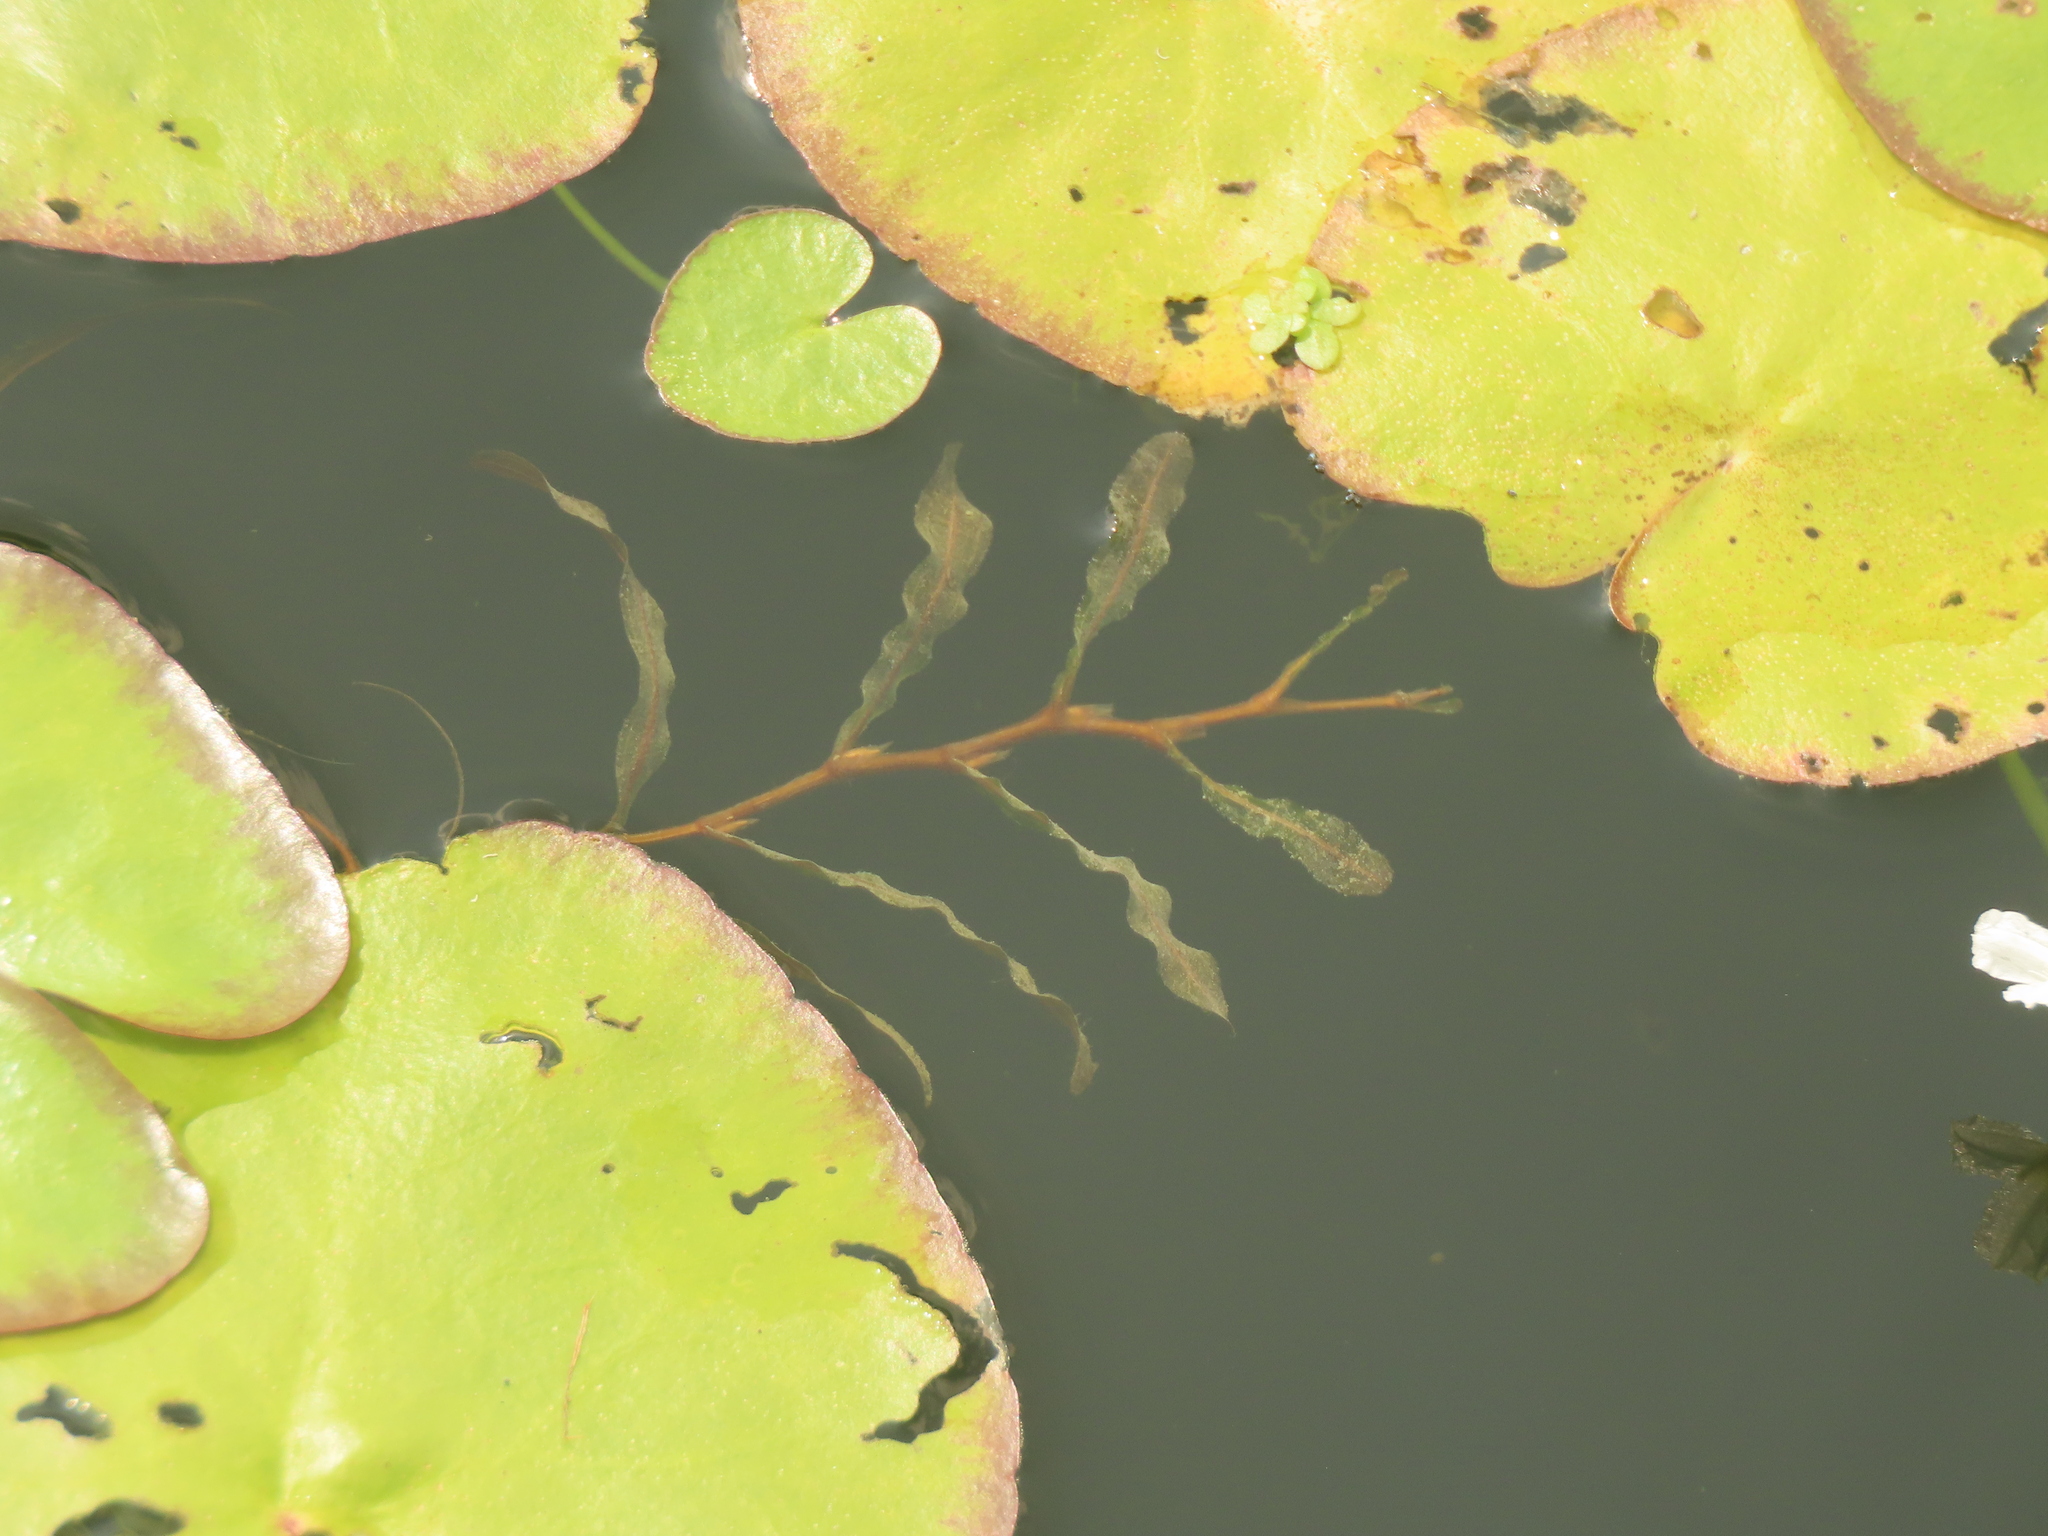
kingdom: Plantae
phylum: Tracheophyta
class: Liliopsida
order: Alismatales
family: Potamogetonaceae
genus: Potamogeton
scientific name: Potamogeton crispus
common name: Curled pondweed
